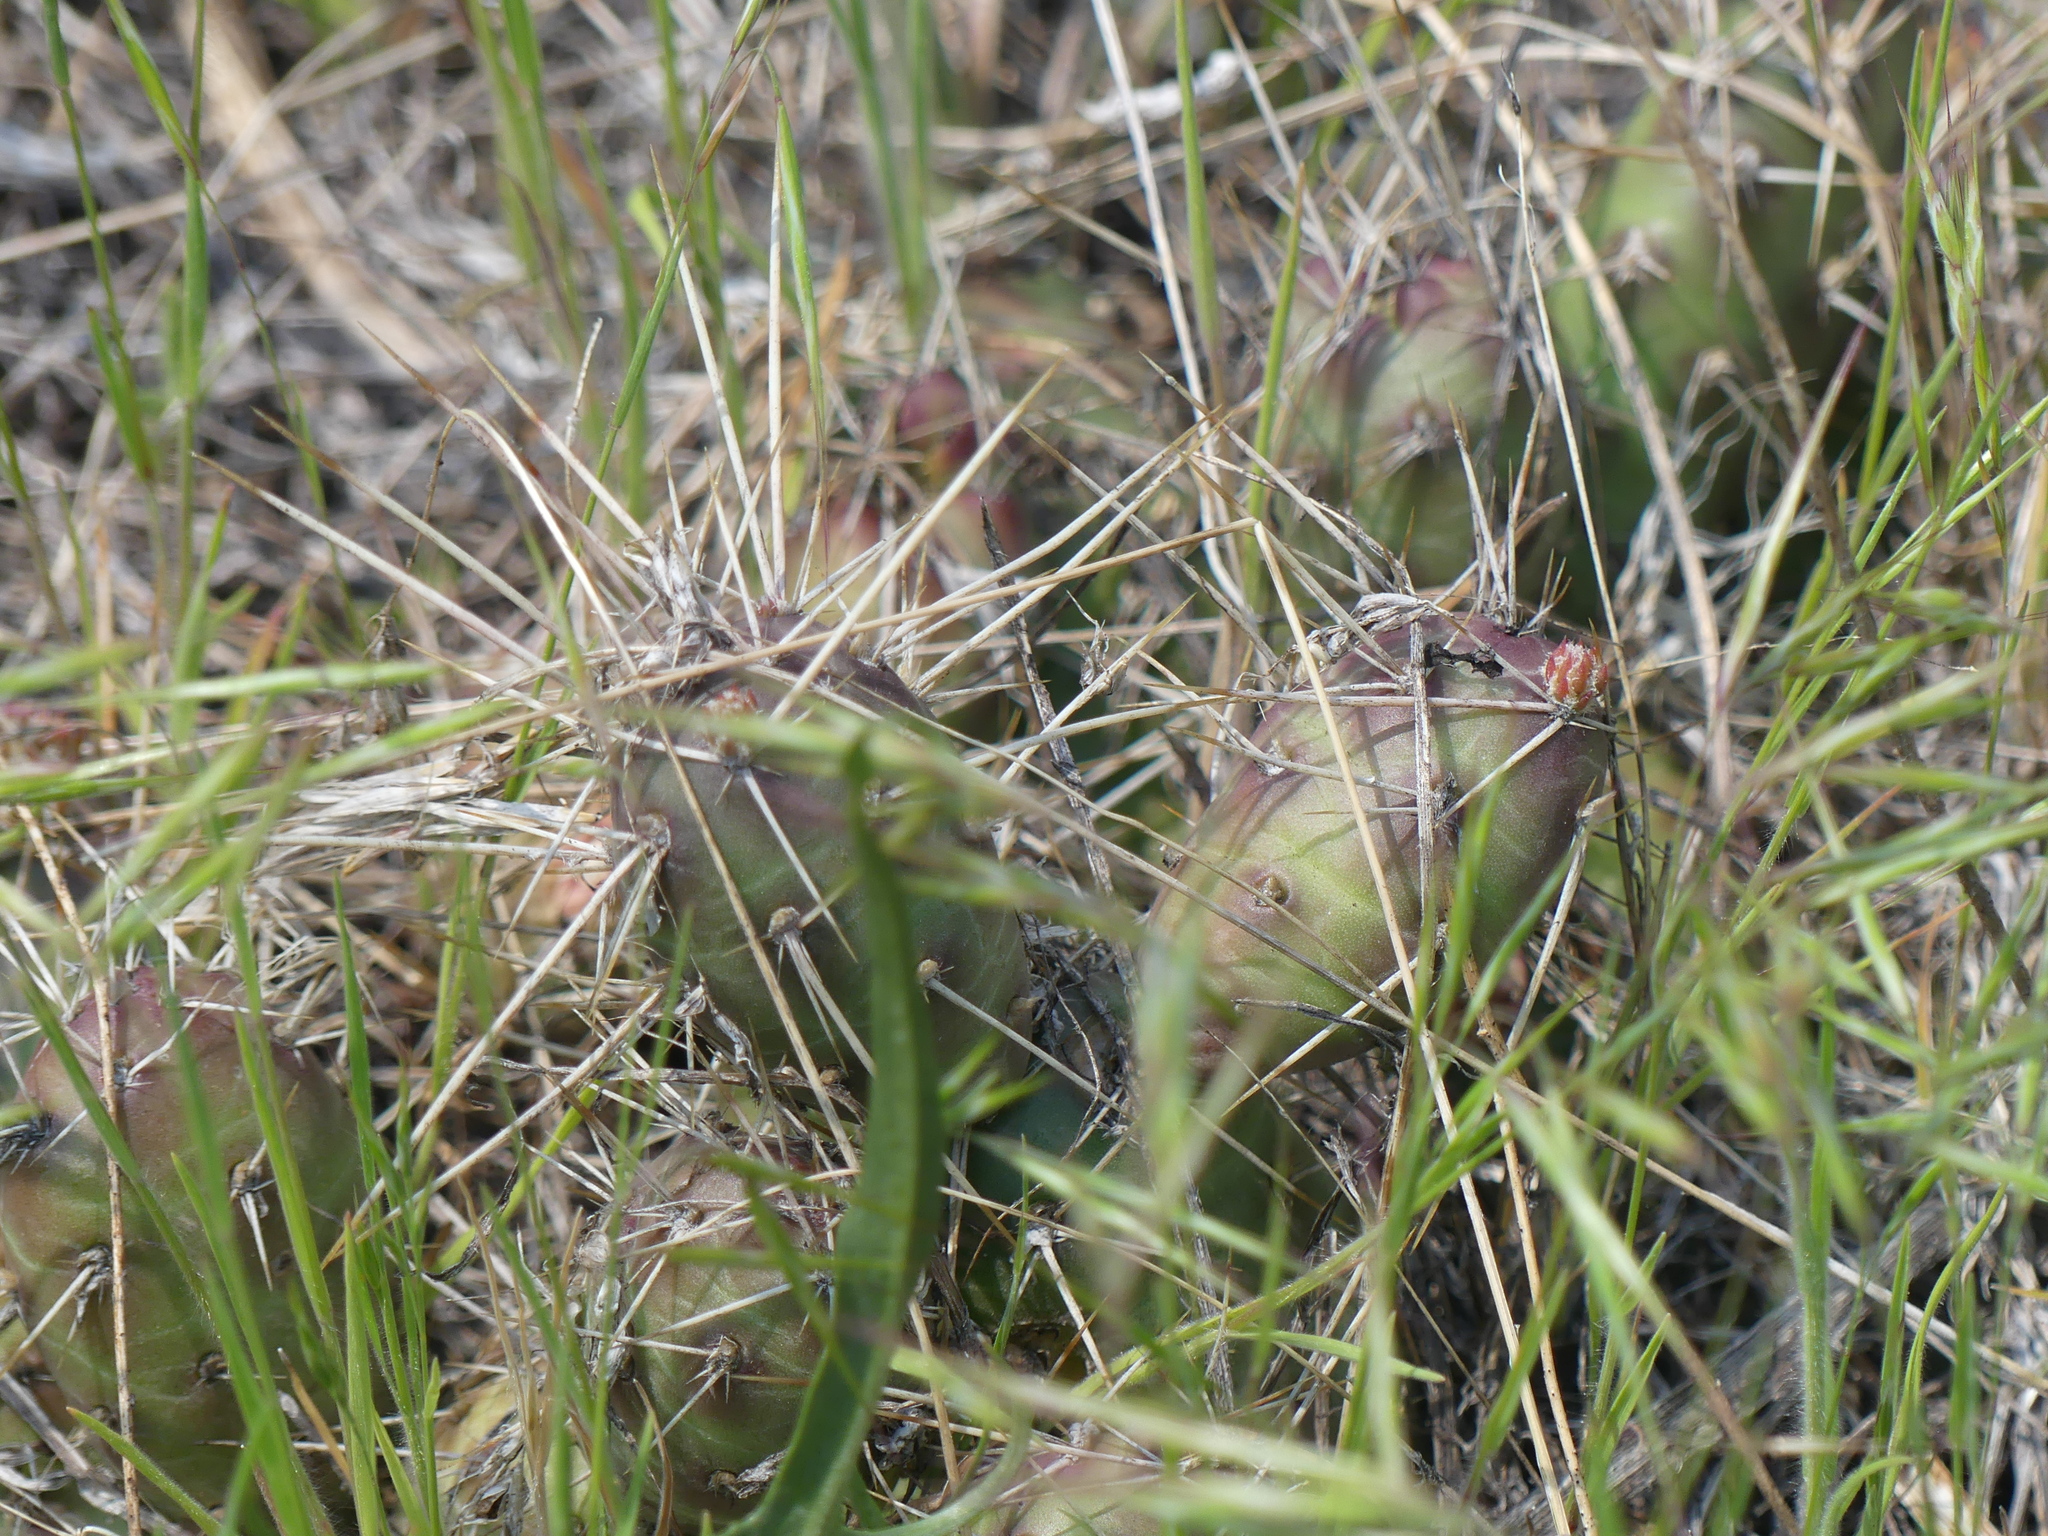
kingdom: Plantae
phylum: Tracheophyta
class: Magnoliopsida
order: Caryophyllales
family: Cactaceae
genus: Opuntia
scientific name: Opuntia fragilis
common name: Brittle cactus
